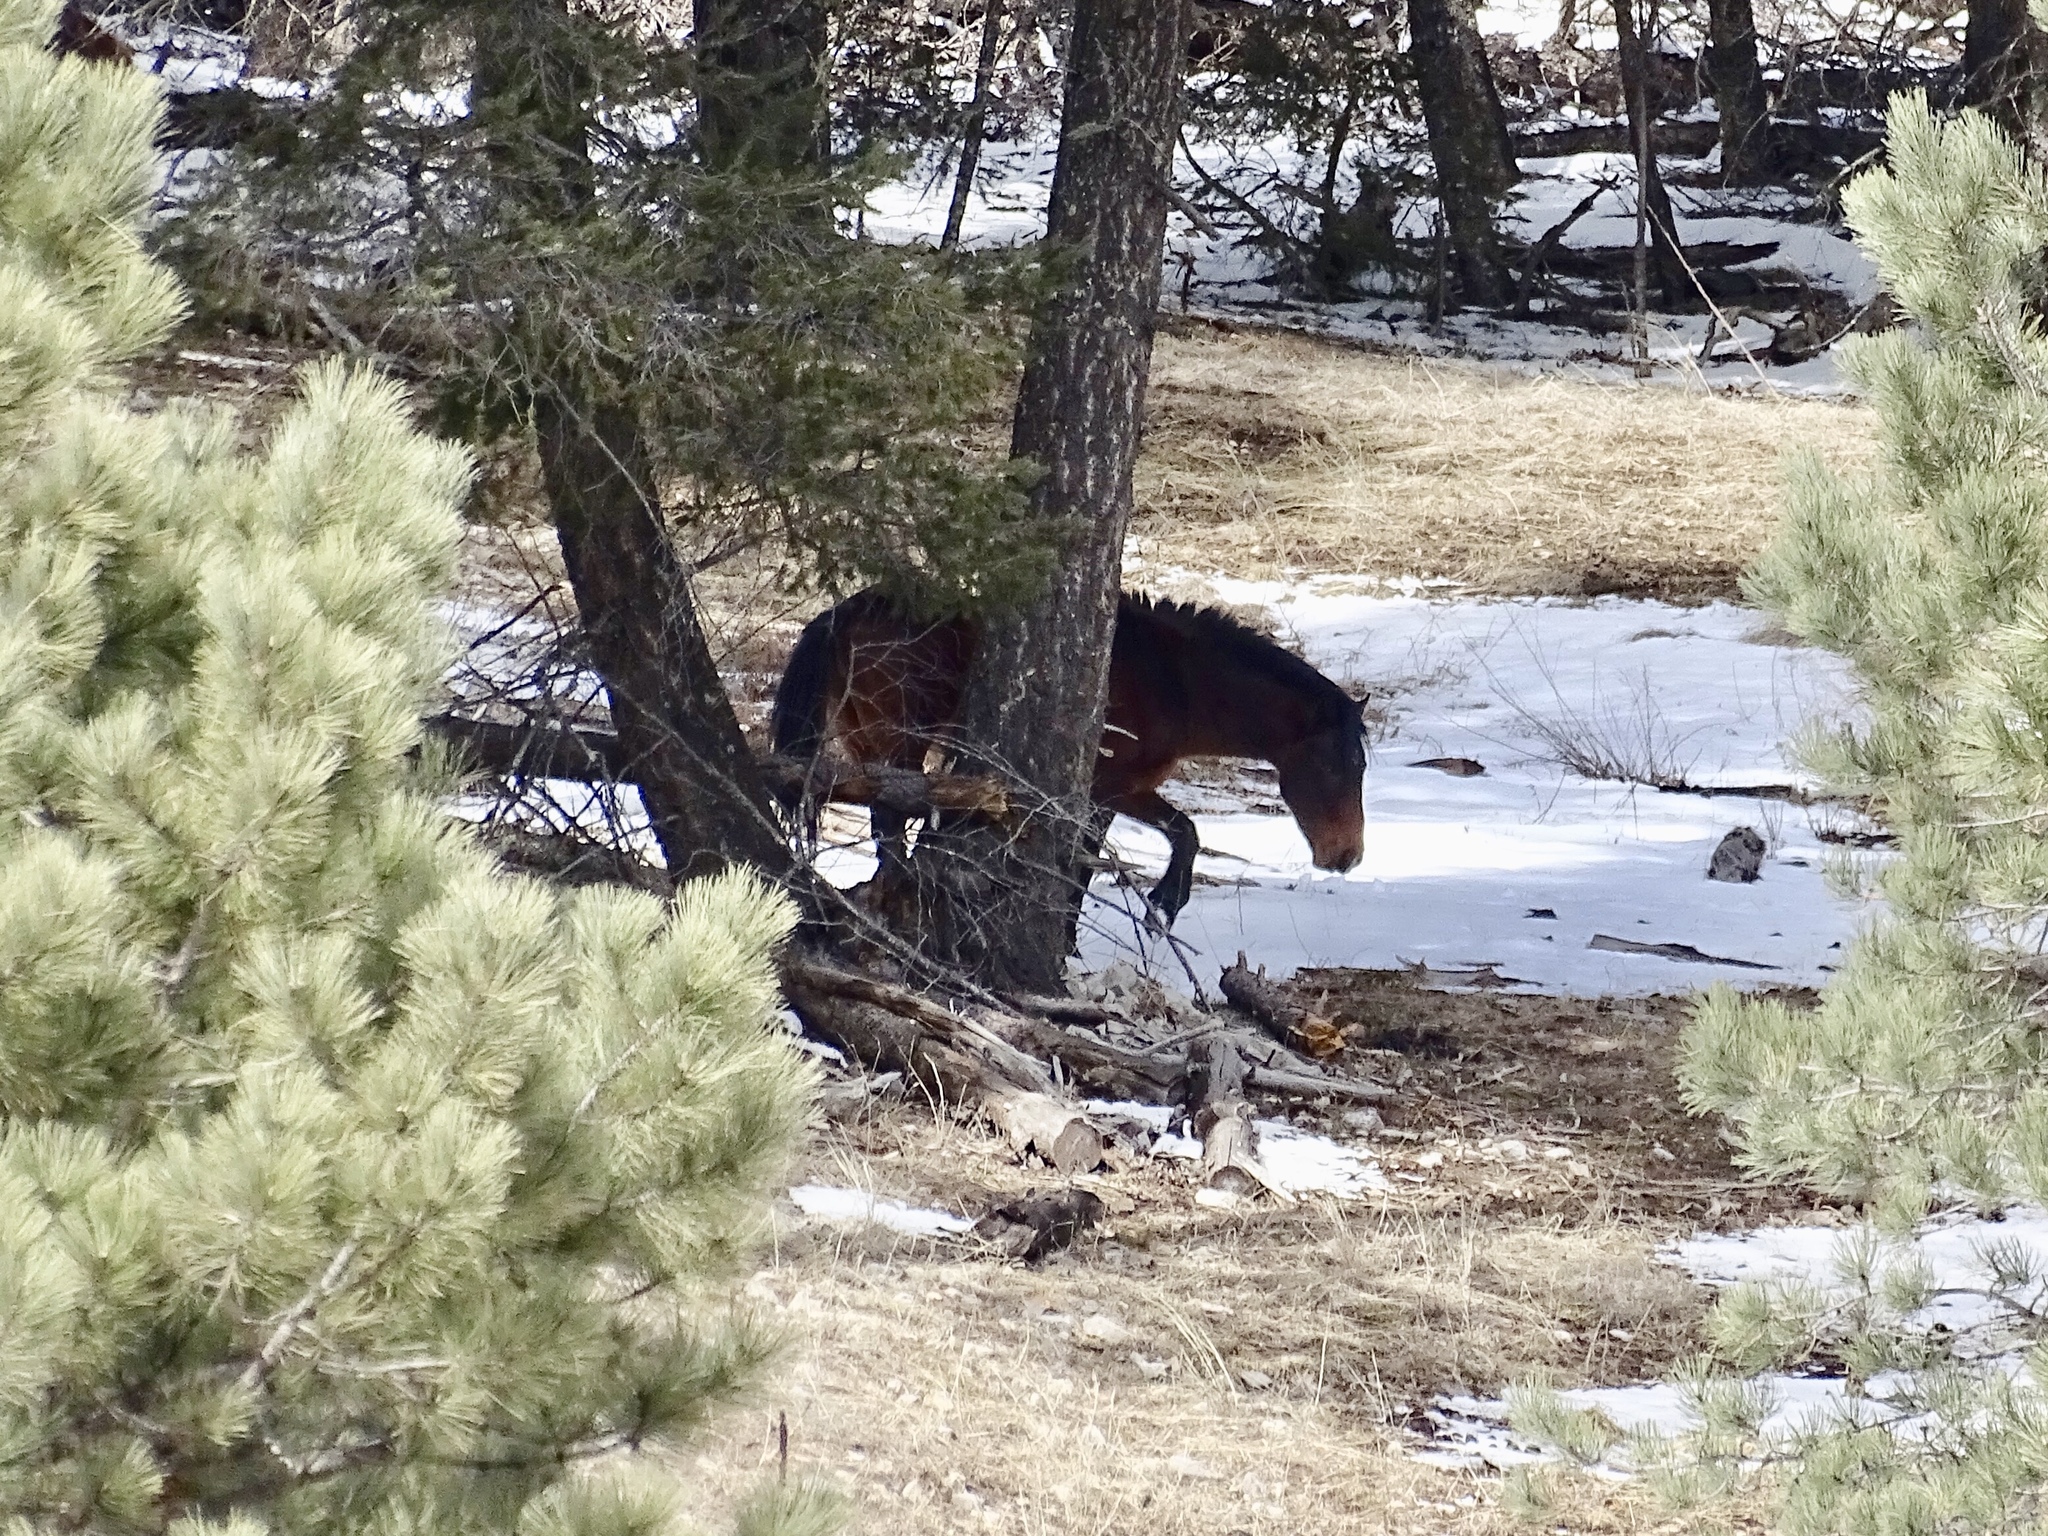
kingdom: Animalia
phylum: Chordata
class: Mammalia
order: Perissodactyla
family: Equidae
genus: Equus
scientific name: Equus caballus
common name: Horse
